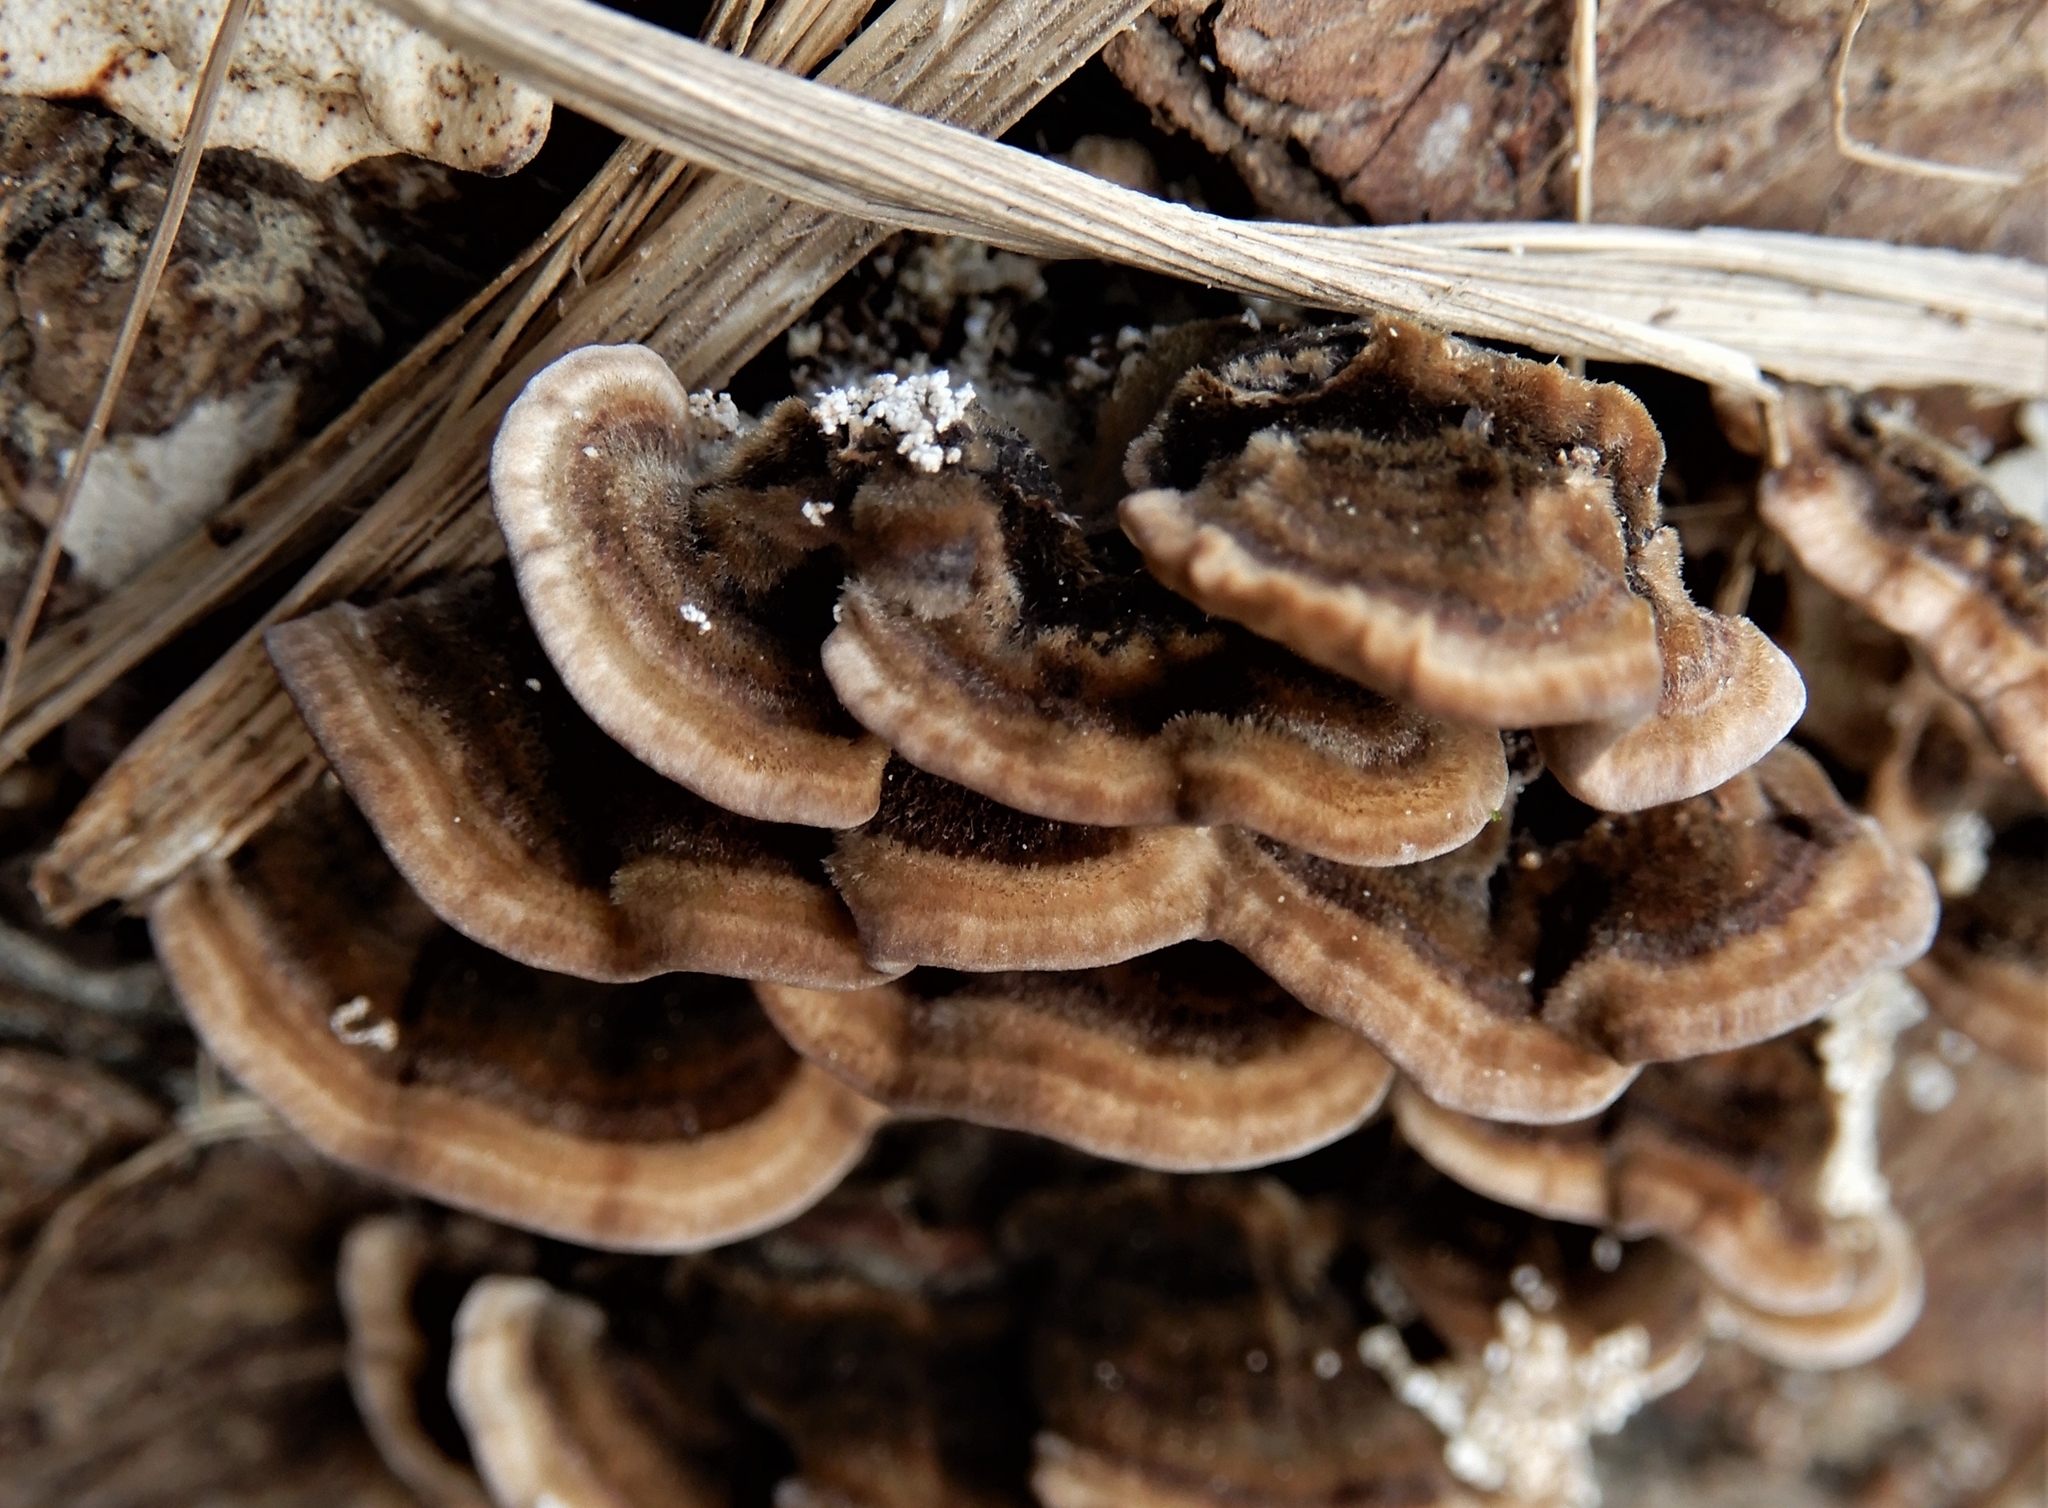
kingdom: Fungi
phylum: Basidiomycota
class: Agaricomycetes
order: Polyporales
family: Polyporaceae
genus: Trametes
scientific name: Trametes hirsuta
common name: Hairy bracket
